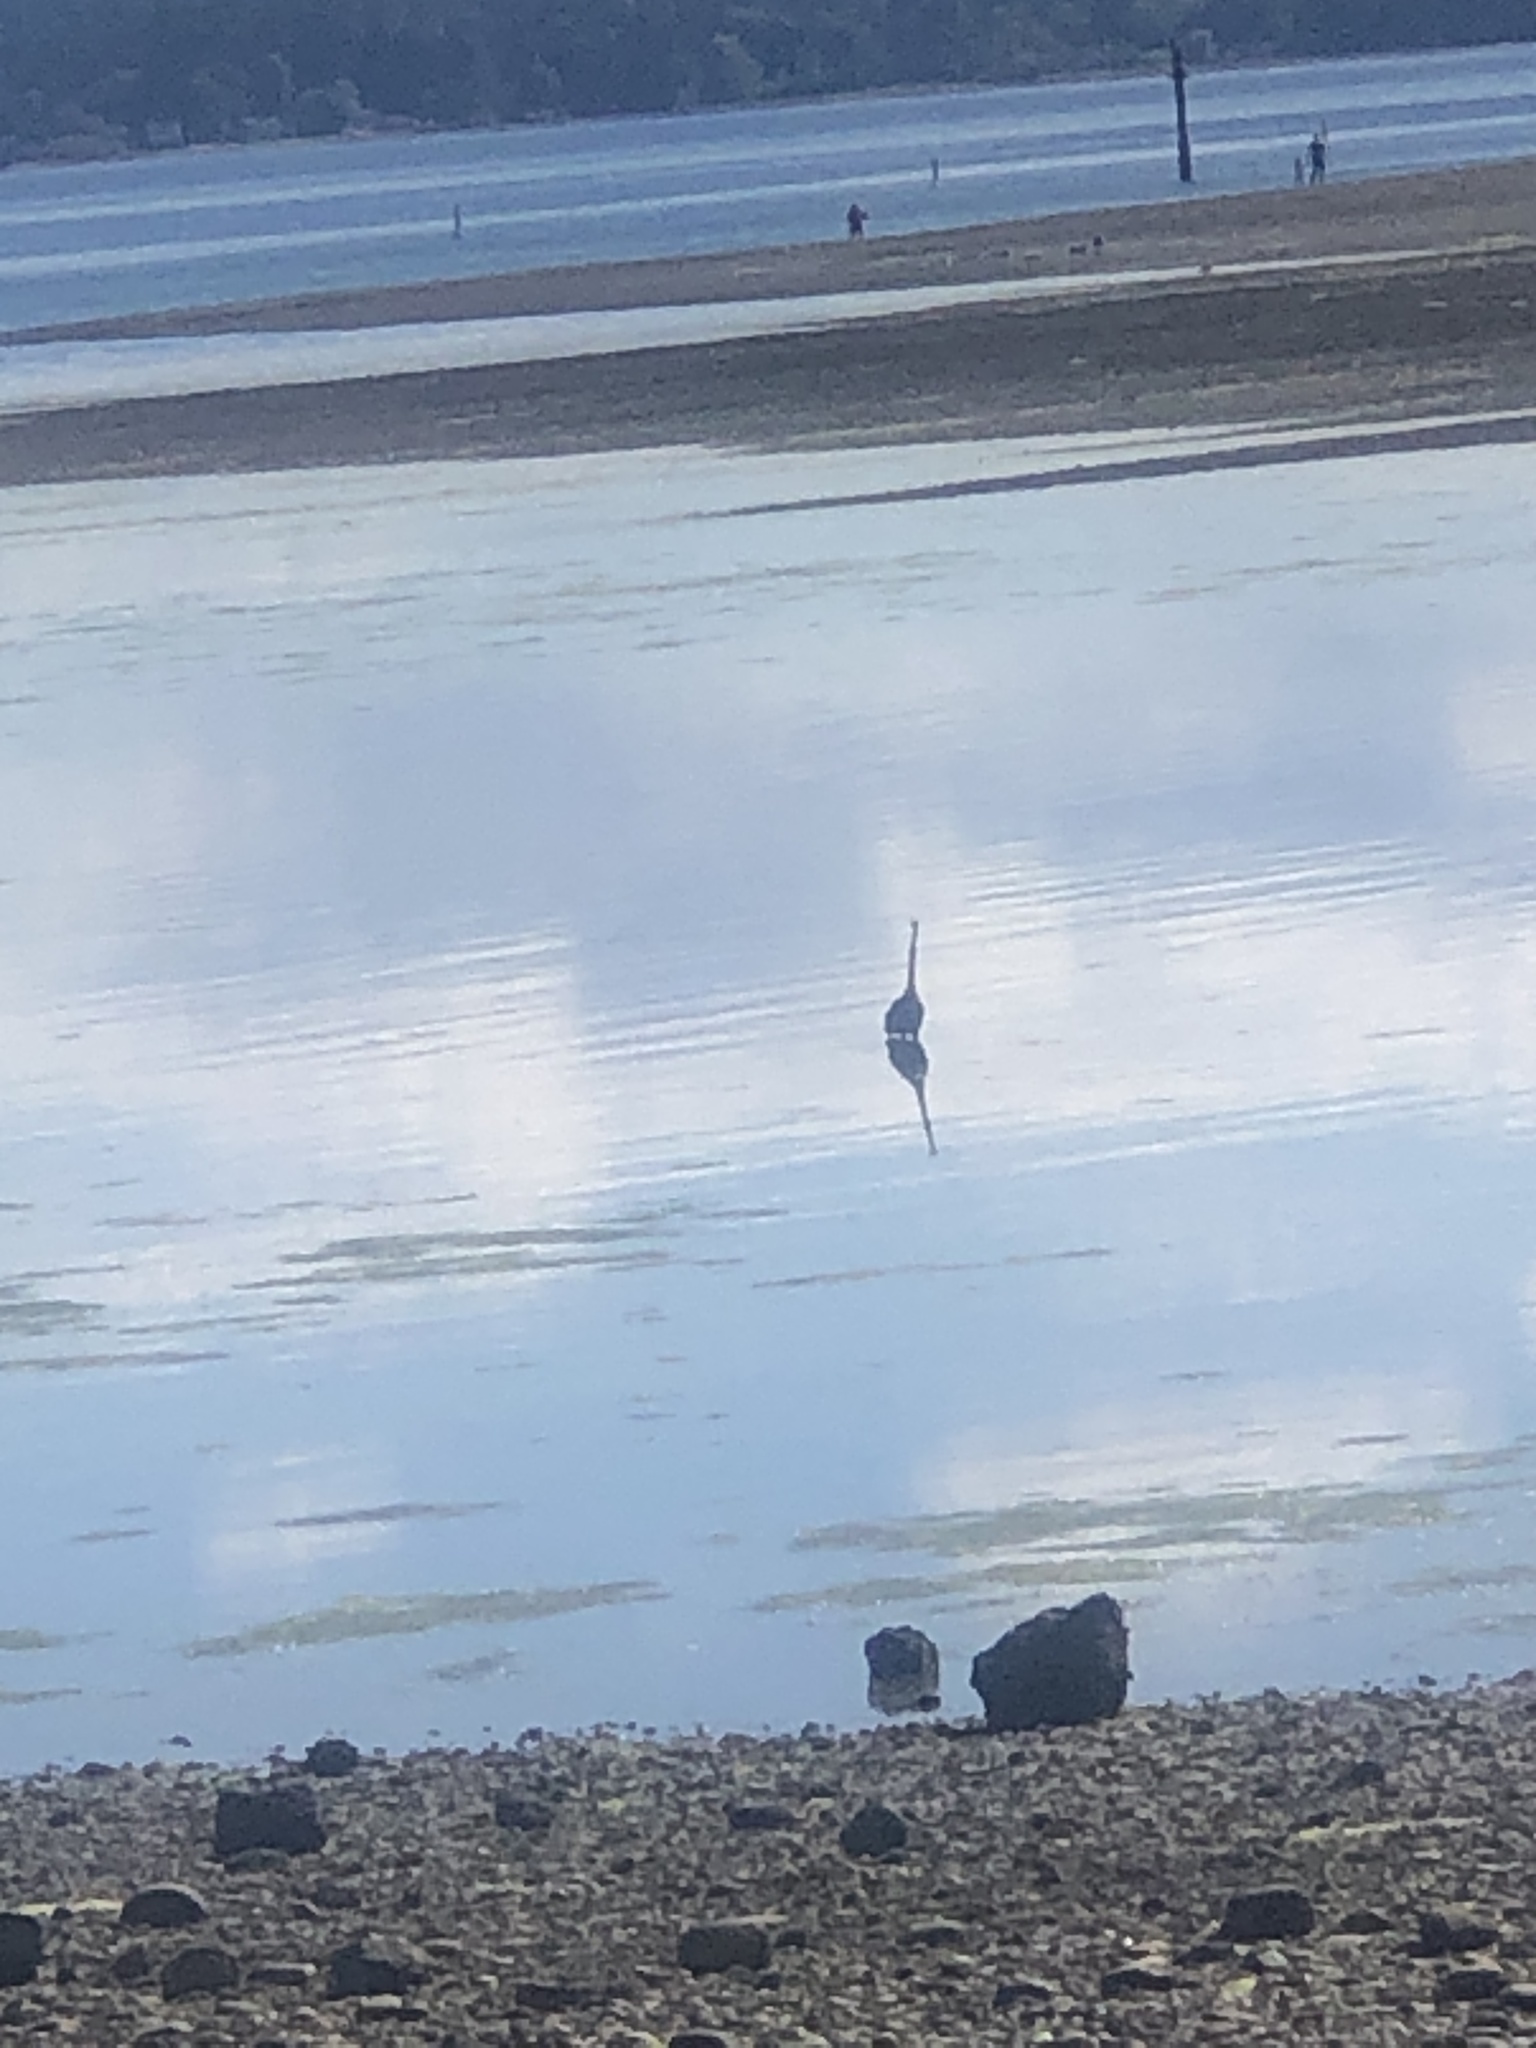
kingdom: Animalia
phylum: Chordata
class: Aves
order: Pelecaniformes
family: Ardeidae
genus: Ardea
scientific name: Ardea herodias
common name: Great blue heron
